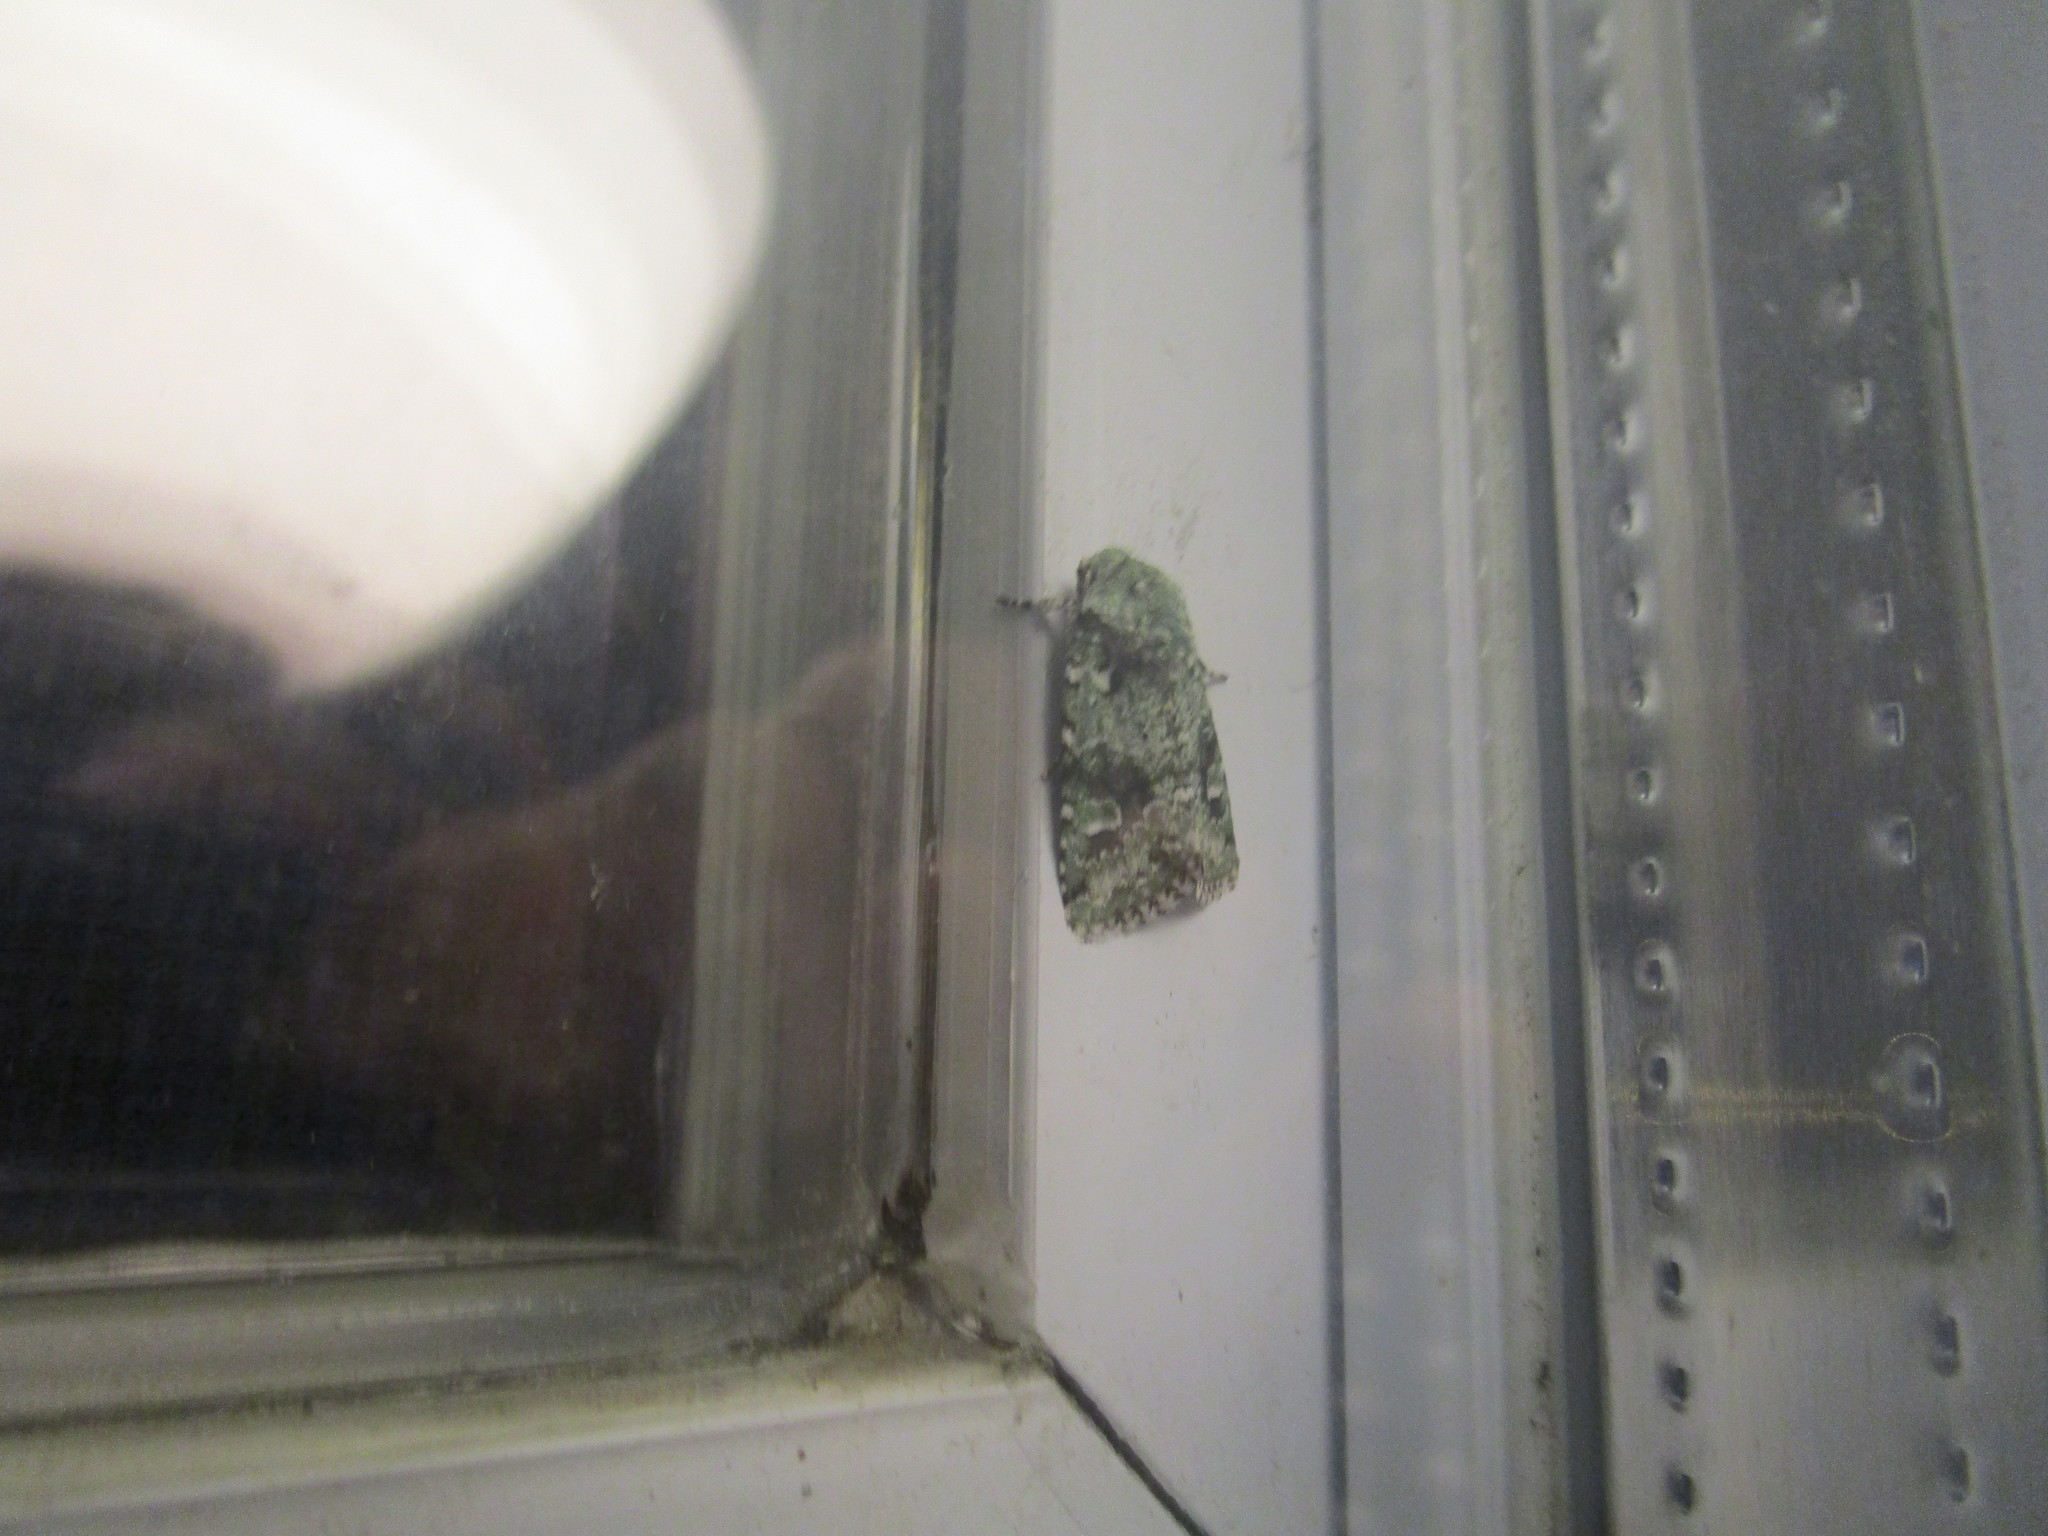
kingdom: Animalia
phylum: Arthropoda
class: Insecta
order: Lepidoptera
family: Noctuidae
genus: Lacinipolia
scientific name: Lacinipolia implicata
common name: Implicit arches
